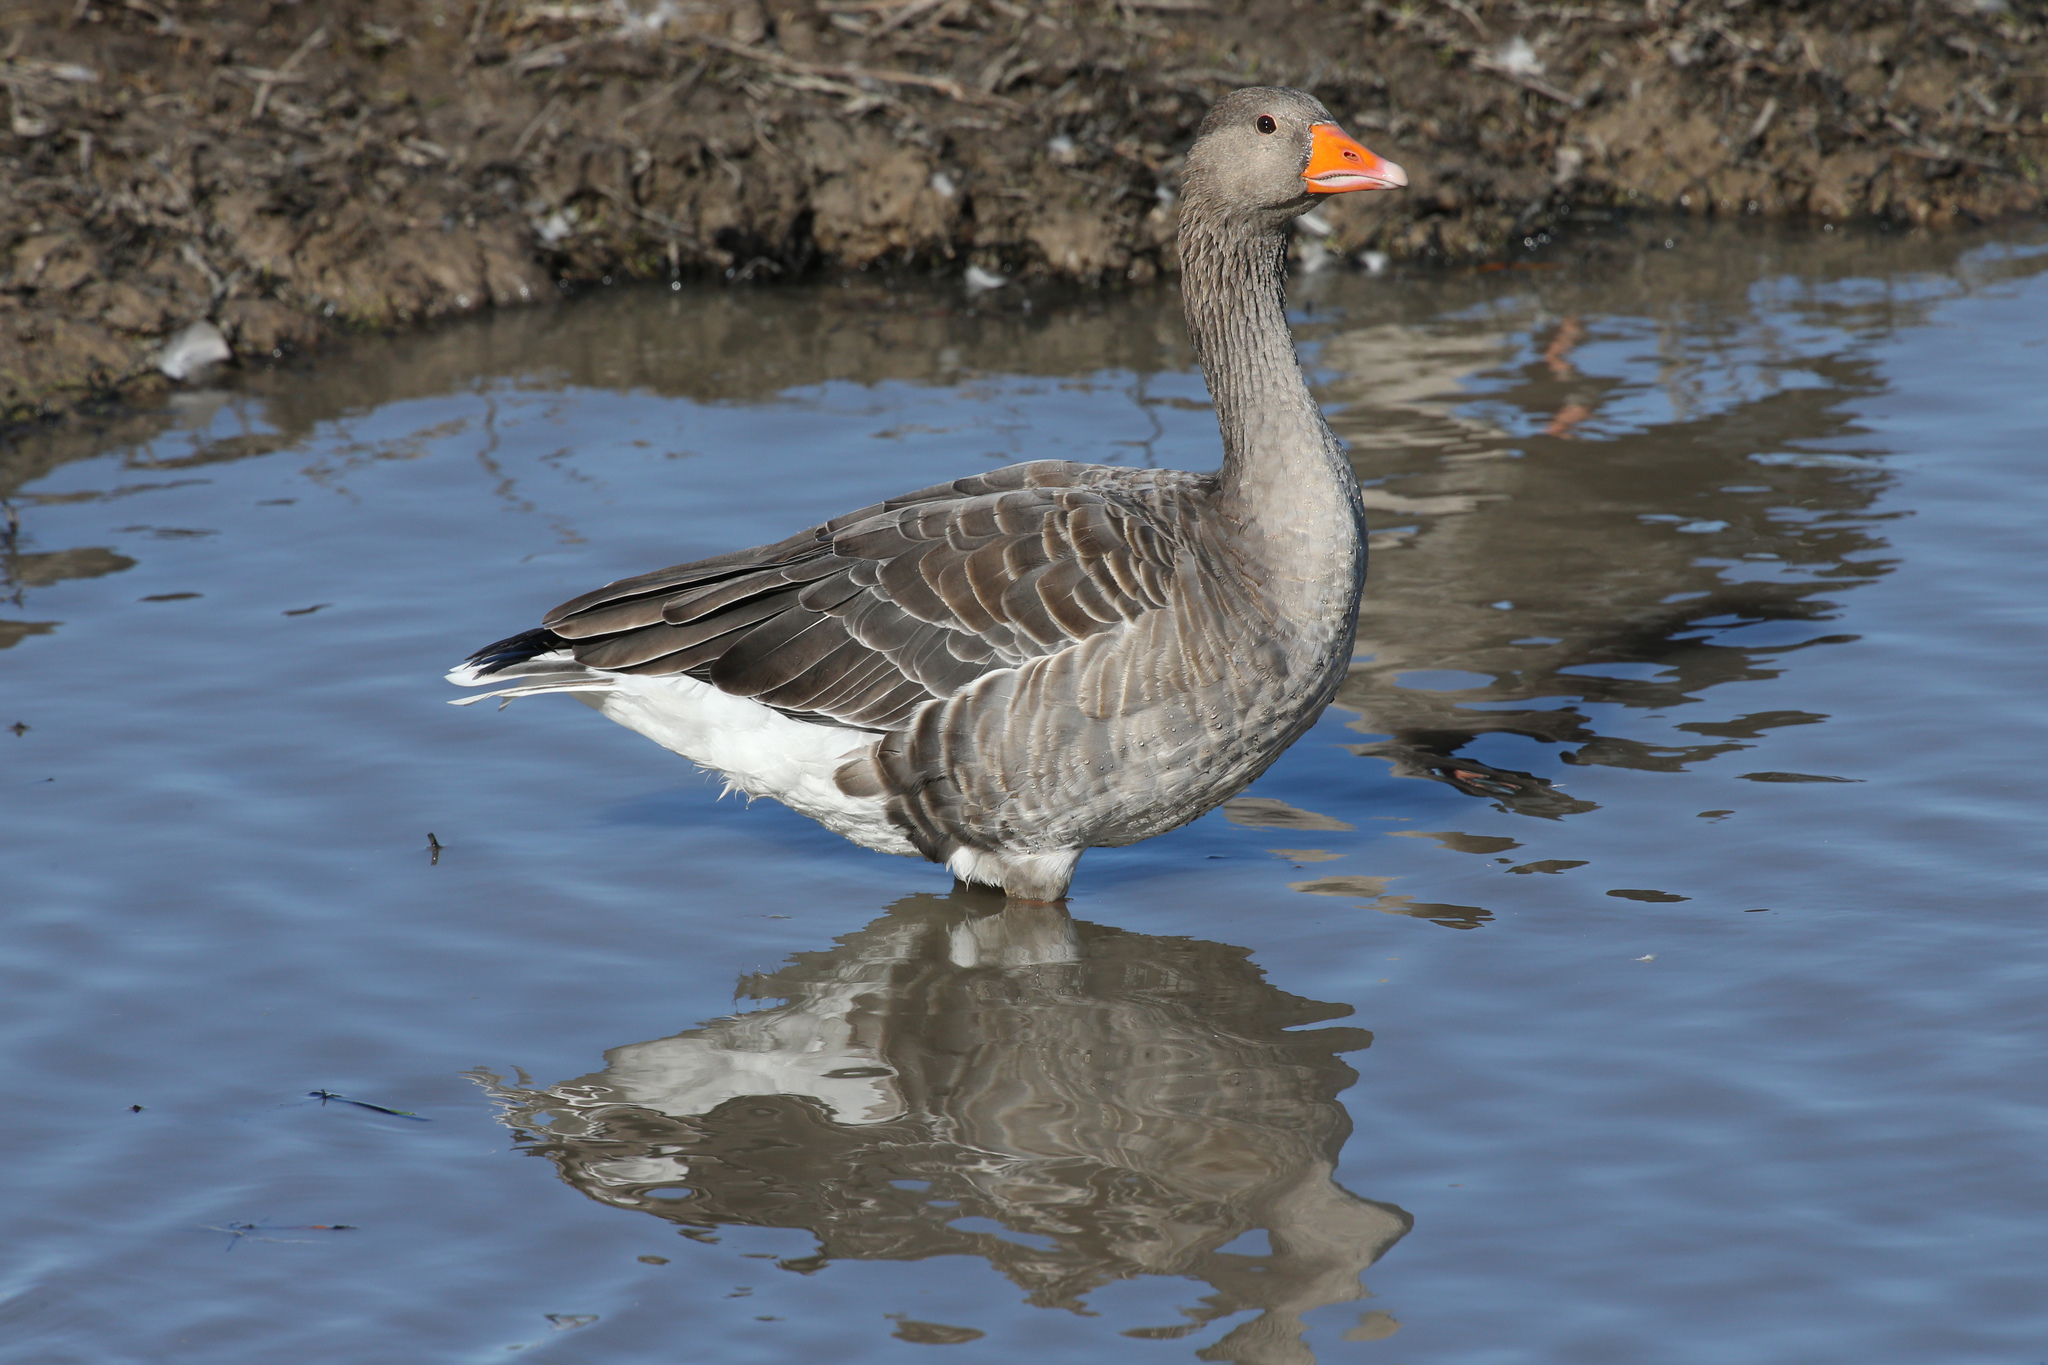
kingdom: Animalia
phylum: Chordata
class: Aves
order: Anseriformes
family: Anatidae
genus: Anser
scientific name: Anser anser
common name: Greylag goose
